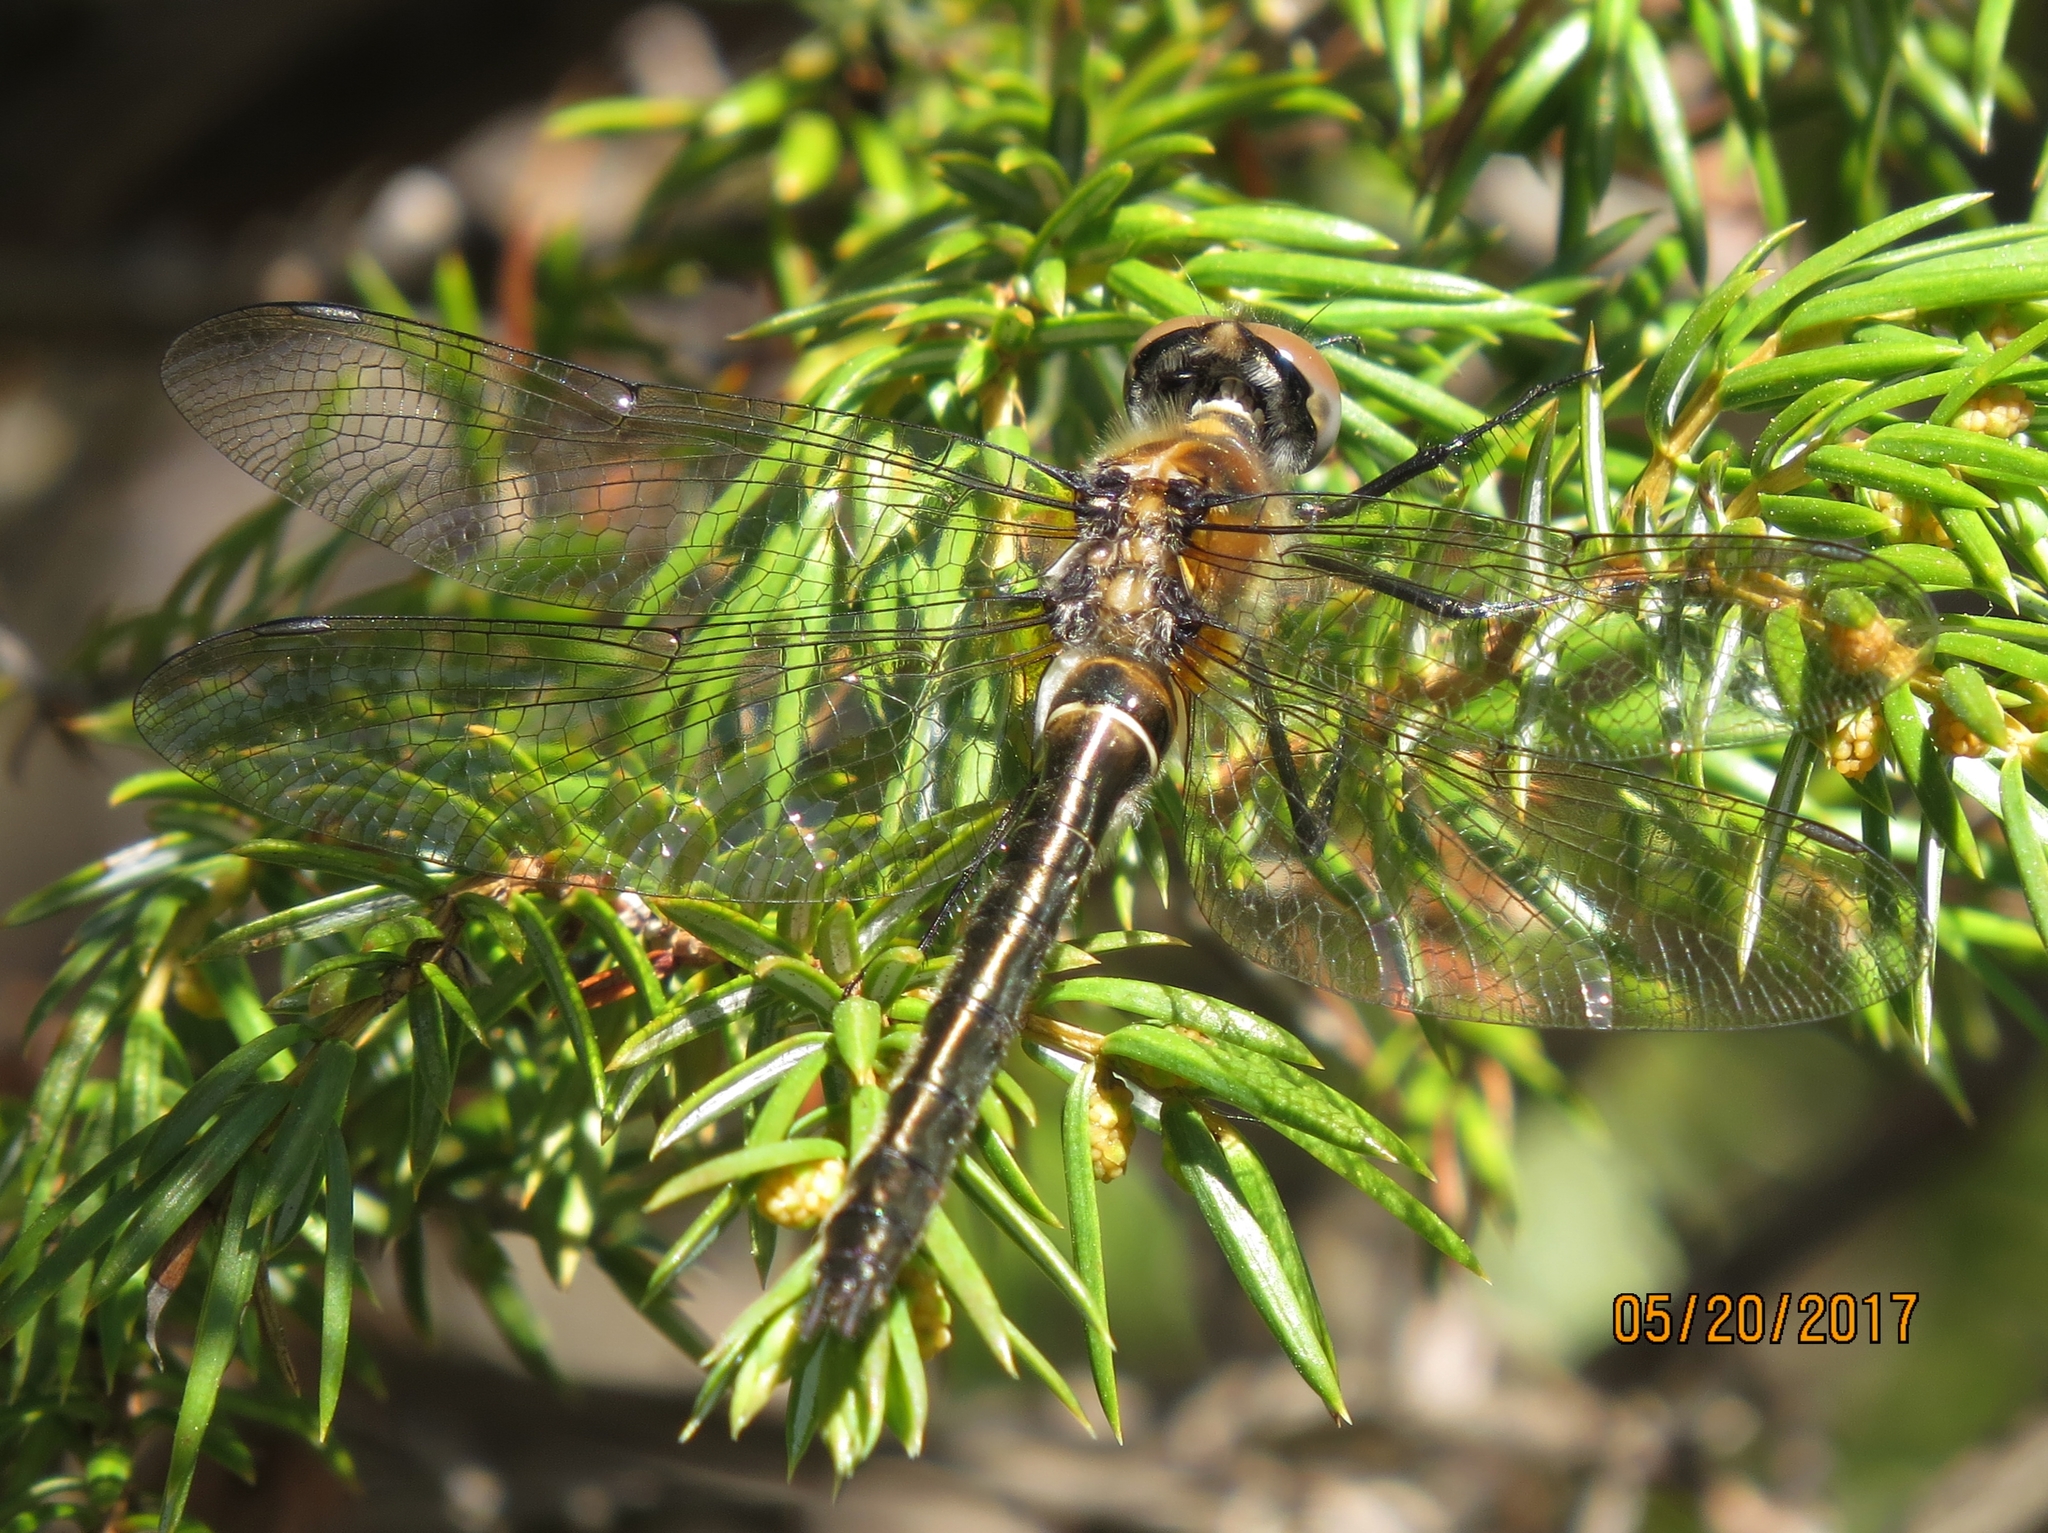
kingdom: Animalia
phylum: Arthropoda
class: Insecta
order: Odonata
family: Corduliidae
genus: Cordulia
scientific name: Cordulia shurtleffii
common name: American emerald
